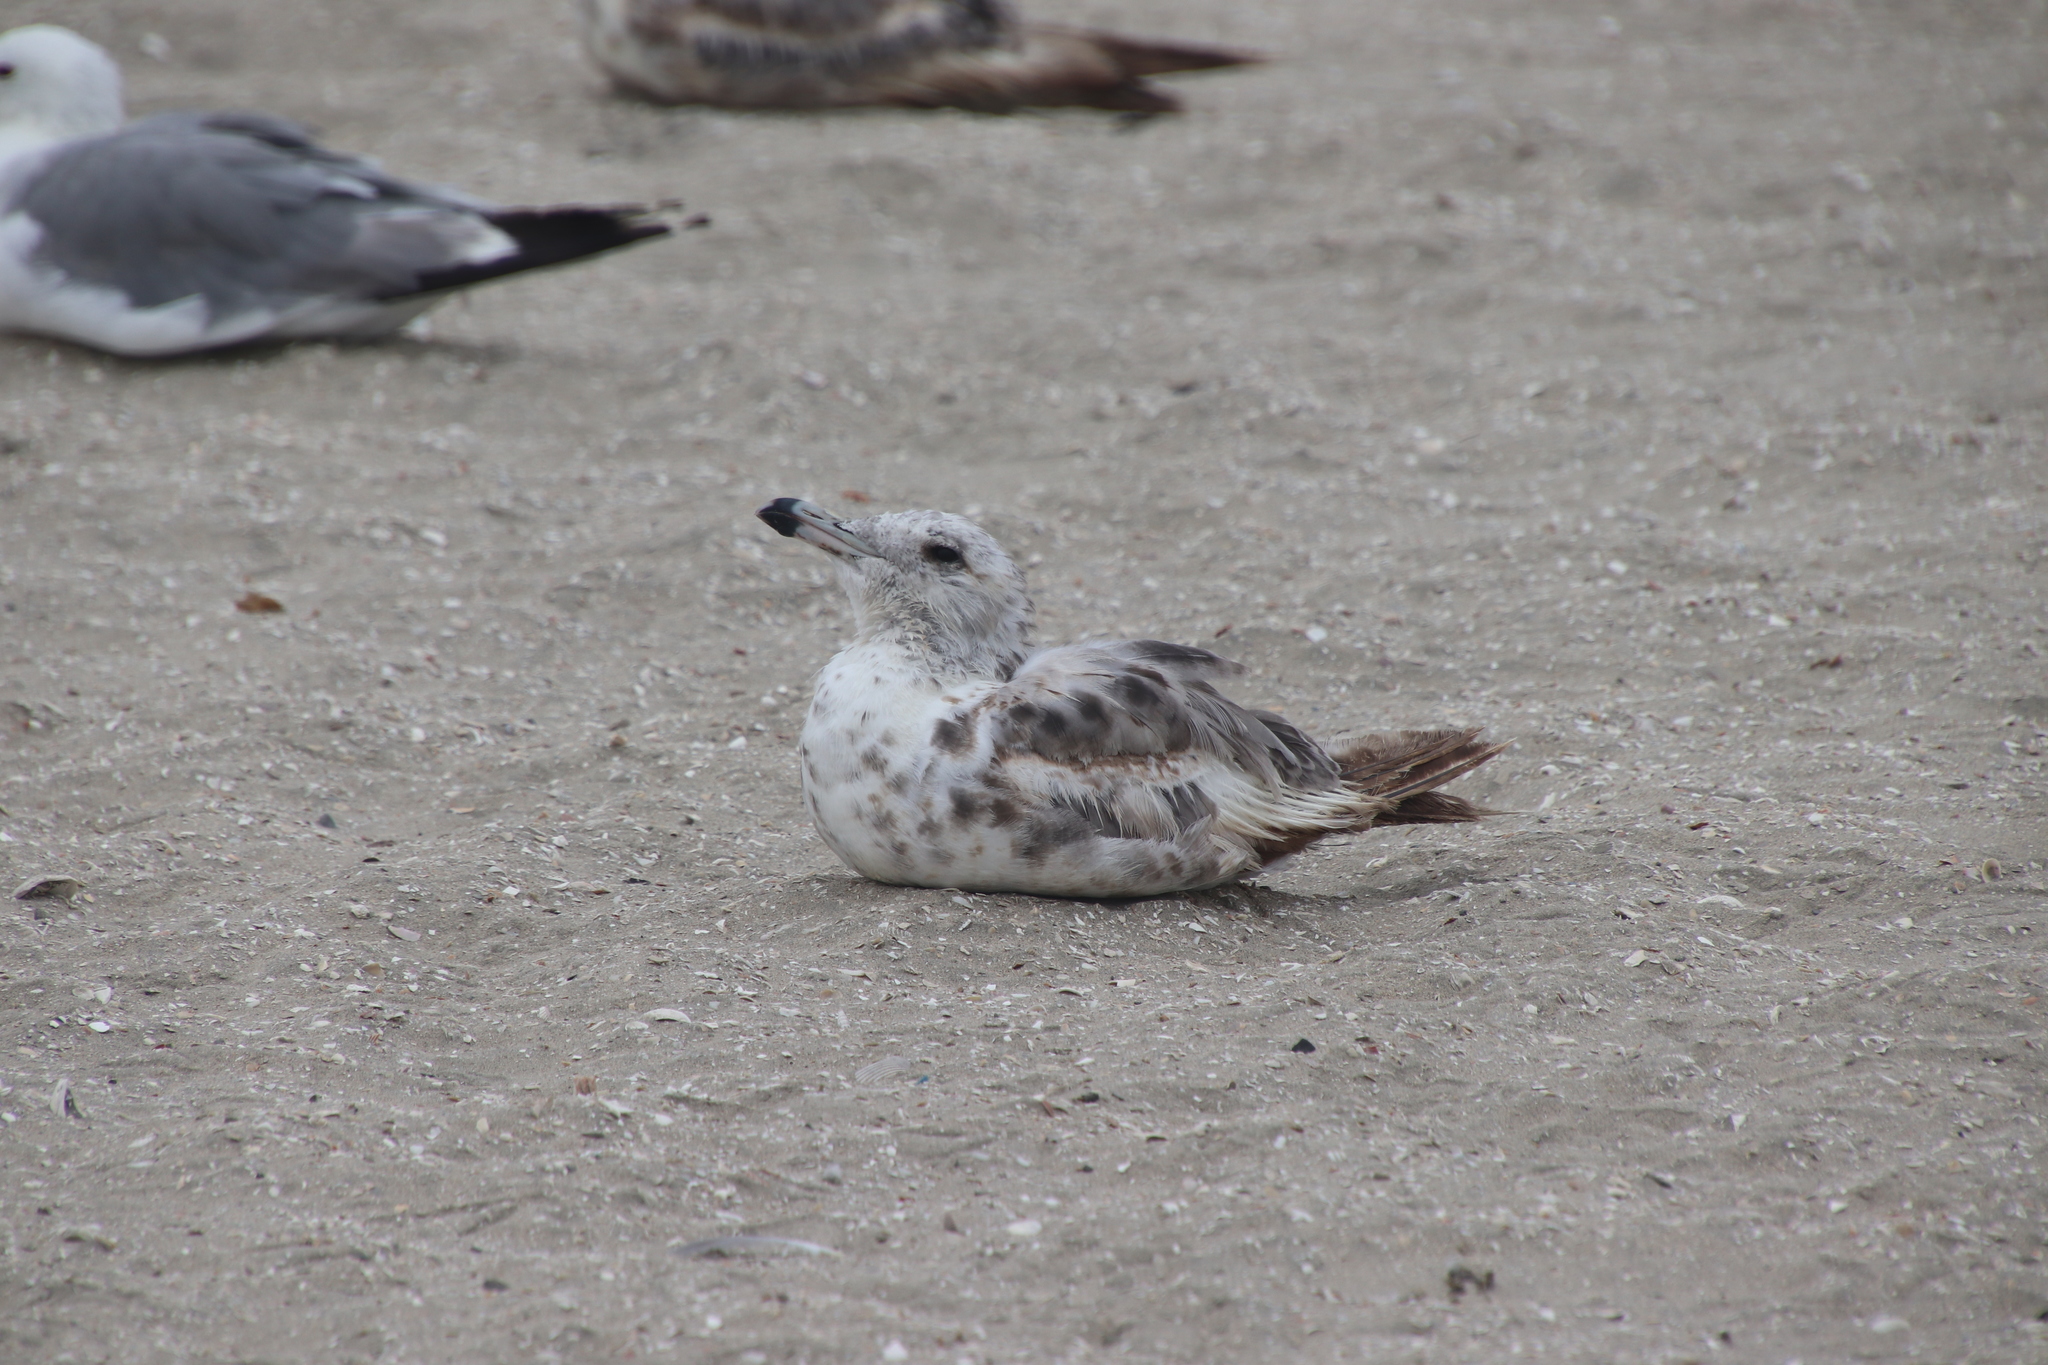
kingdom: Animalia
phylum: Chordata
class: Aves
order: Charadriiformes
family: Laridae
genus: Larus
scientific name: Larus californicus
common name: California gull
